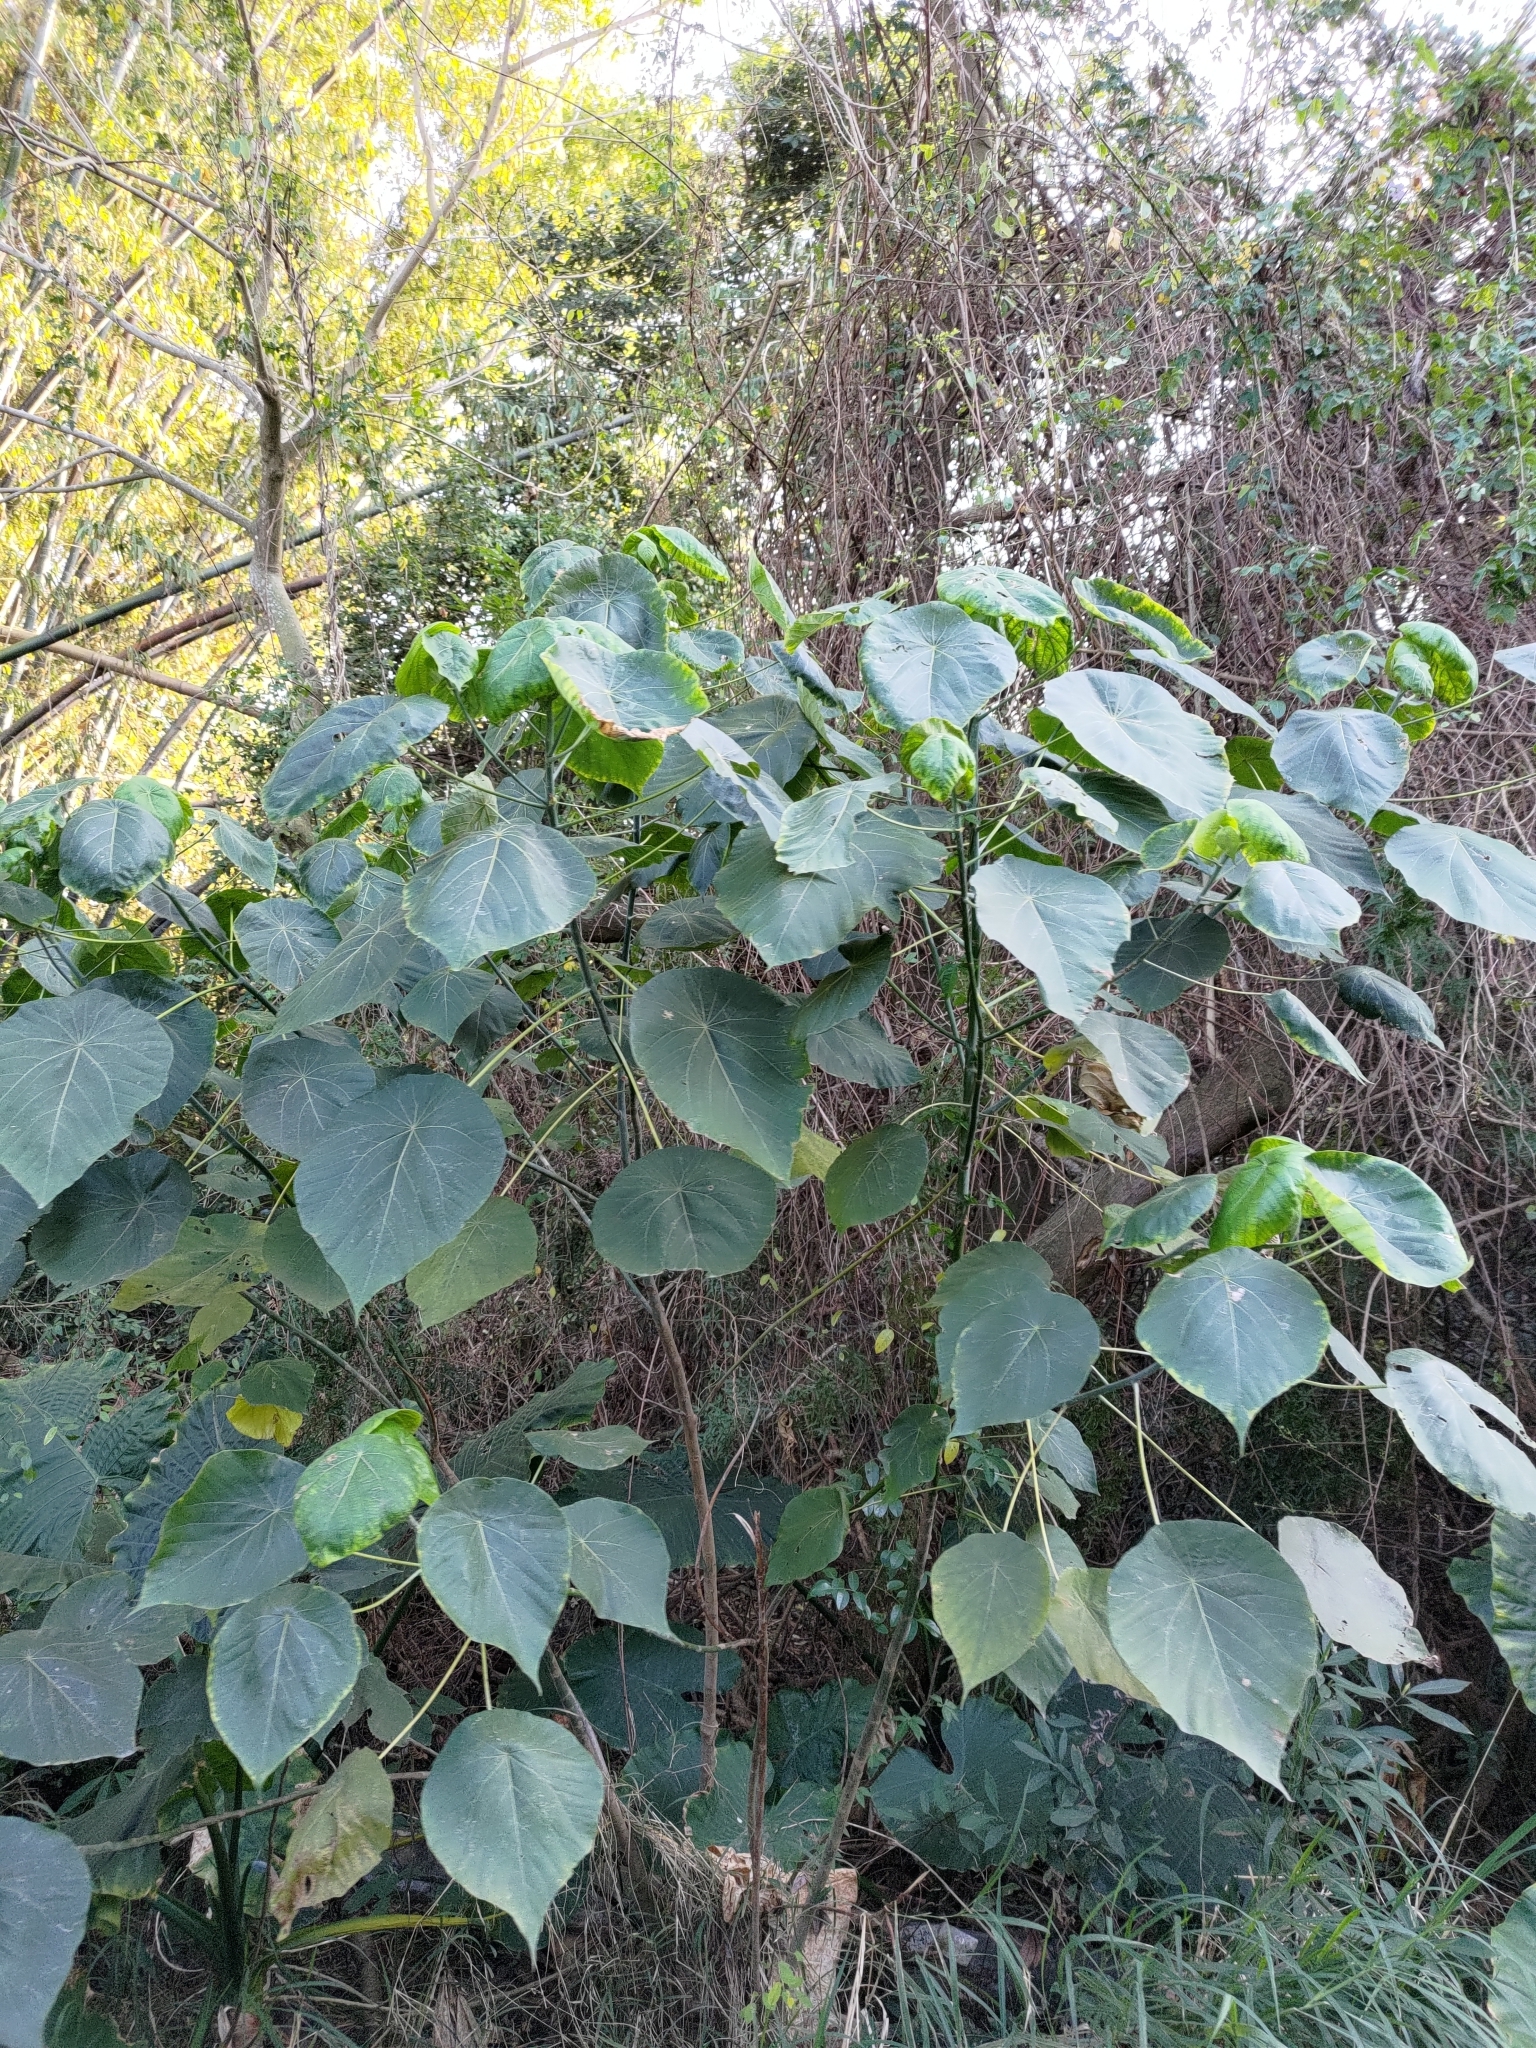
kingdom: Plantae
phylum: Tracheophyta
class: Magnoliopsida
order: Malpighiales
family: Euphorbiaceae
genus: Macaranga
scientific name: Macaranga tanarius
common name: Parasol leaf tree
